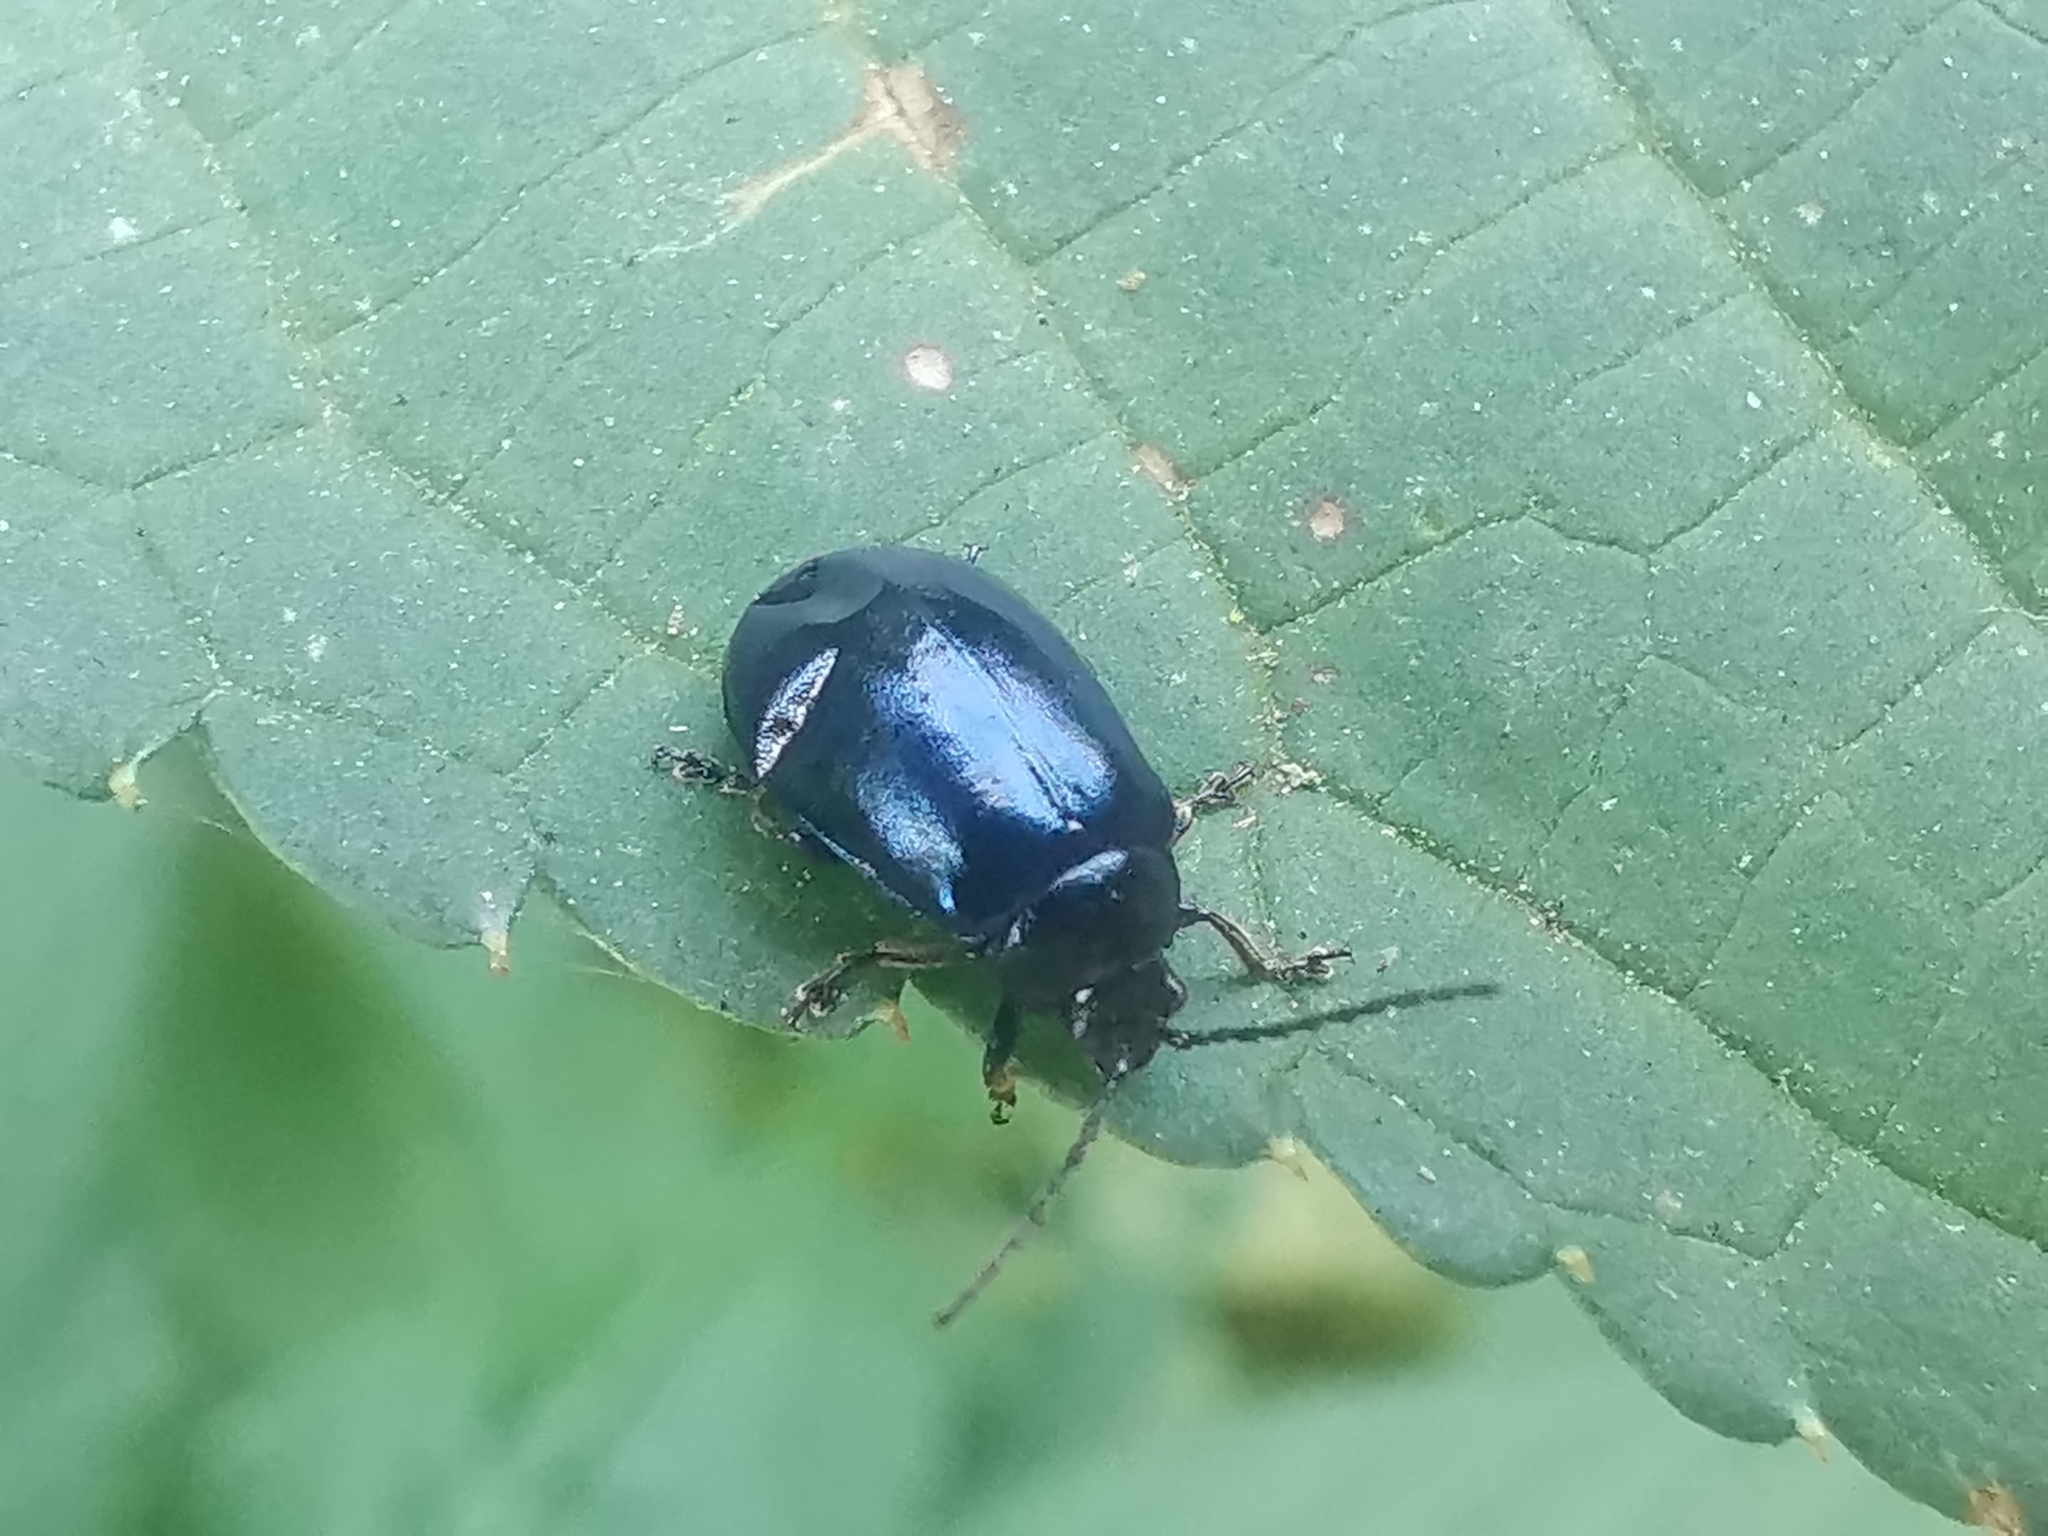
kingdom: Animalia
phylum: Arthropoda
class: Insecta
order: Coleoptera
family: Chrysomelidae
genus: Agelastica
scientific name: Agelastica alni
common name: Alder leaf beetle
